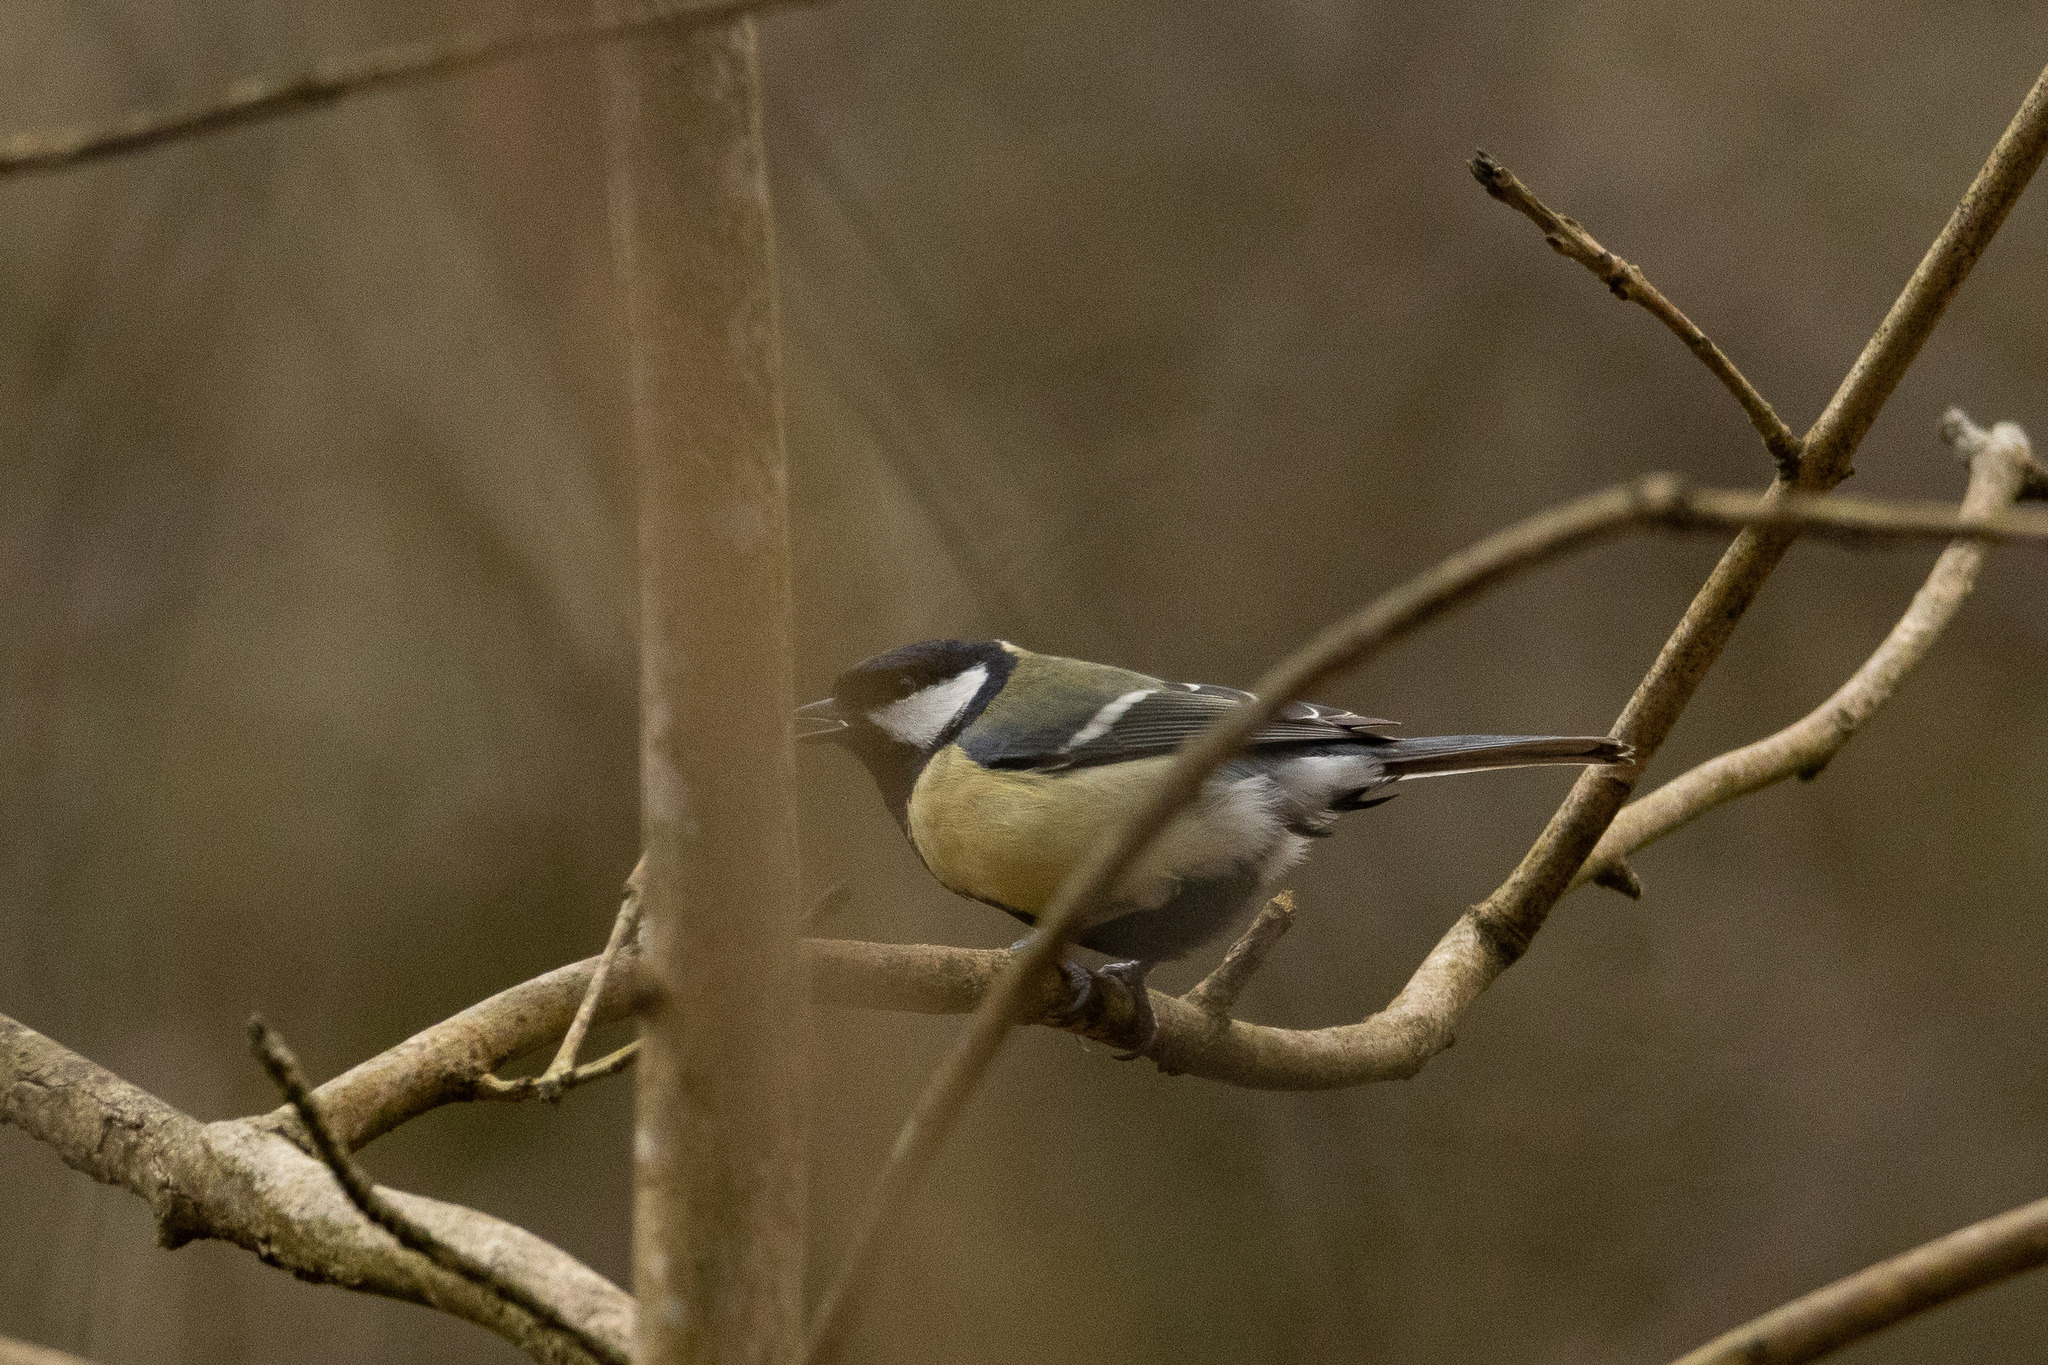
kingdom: Animalia
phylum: Chordata
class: Aves
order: Passeriformes
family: Paridae
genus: Parus
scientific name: Parus major
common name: Great tit
